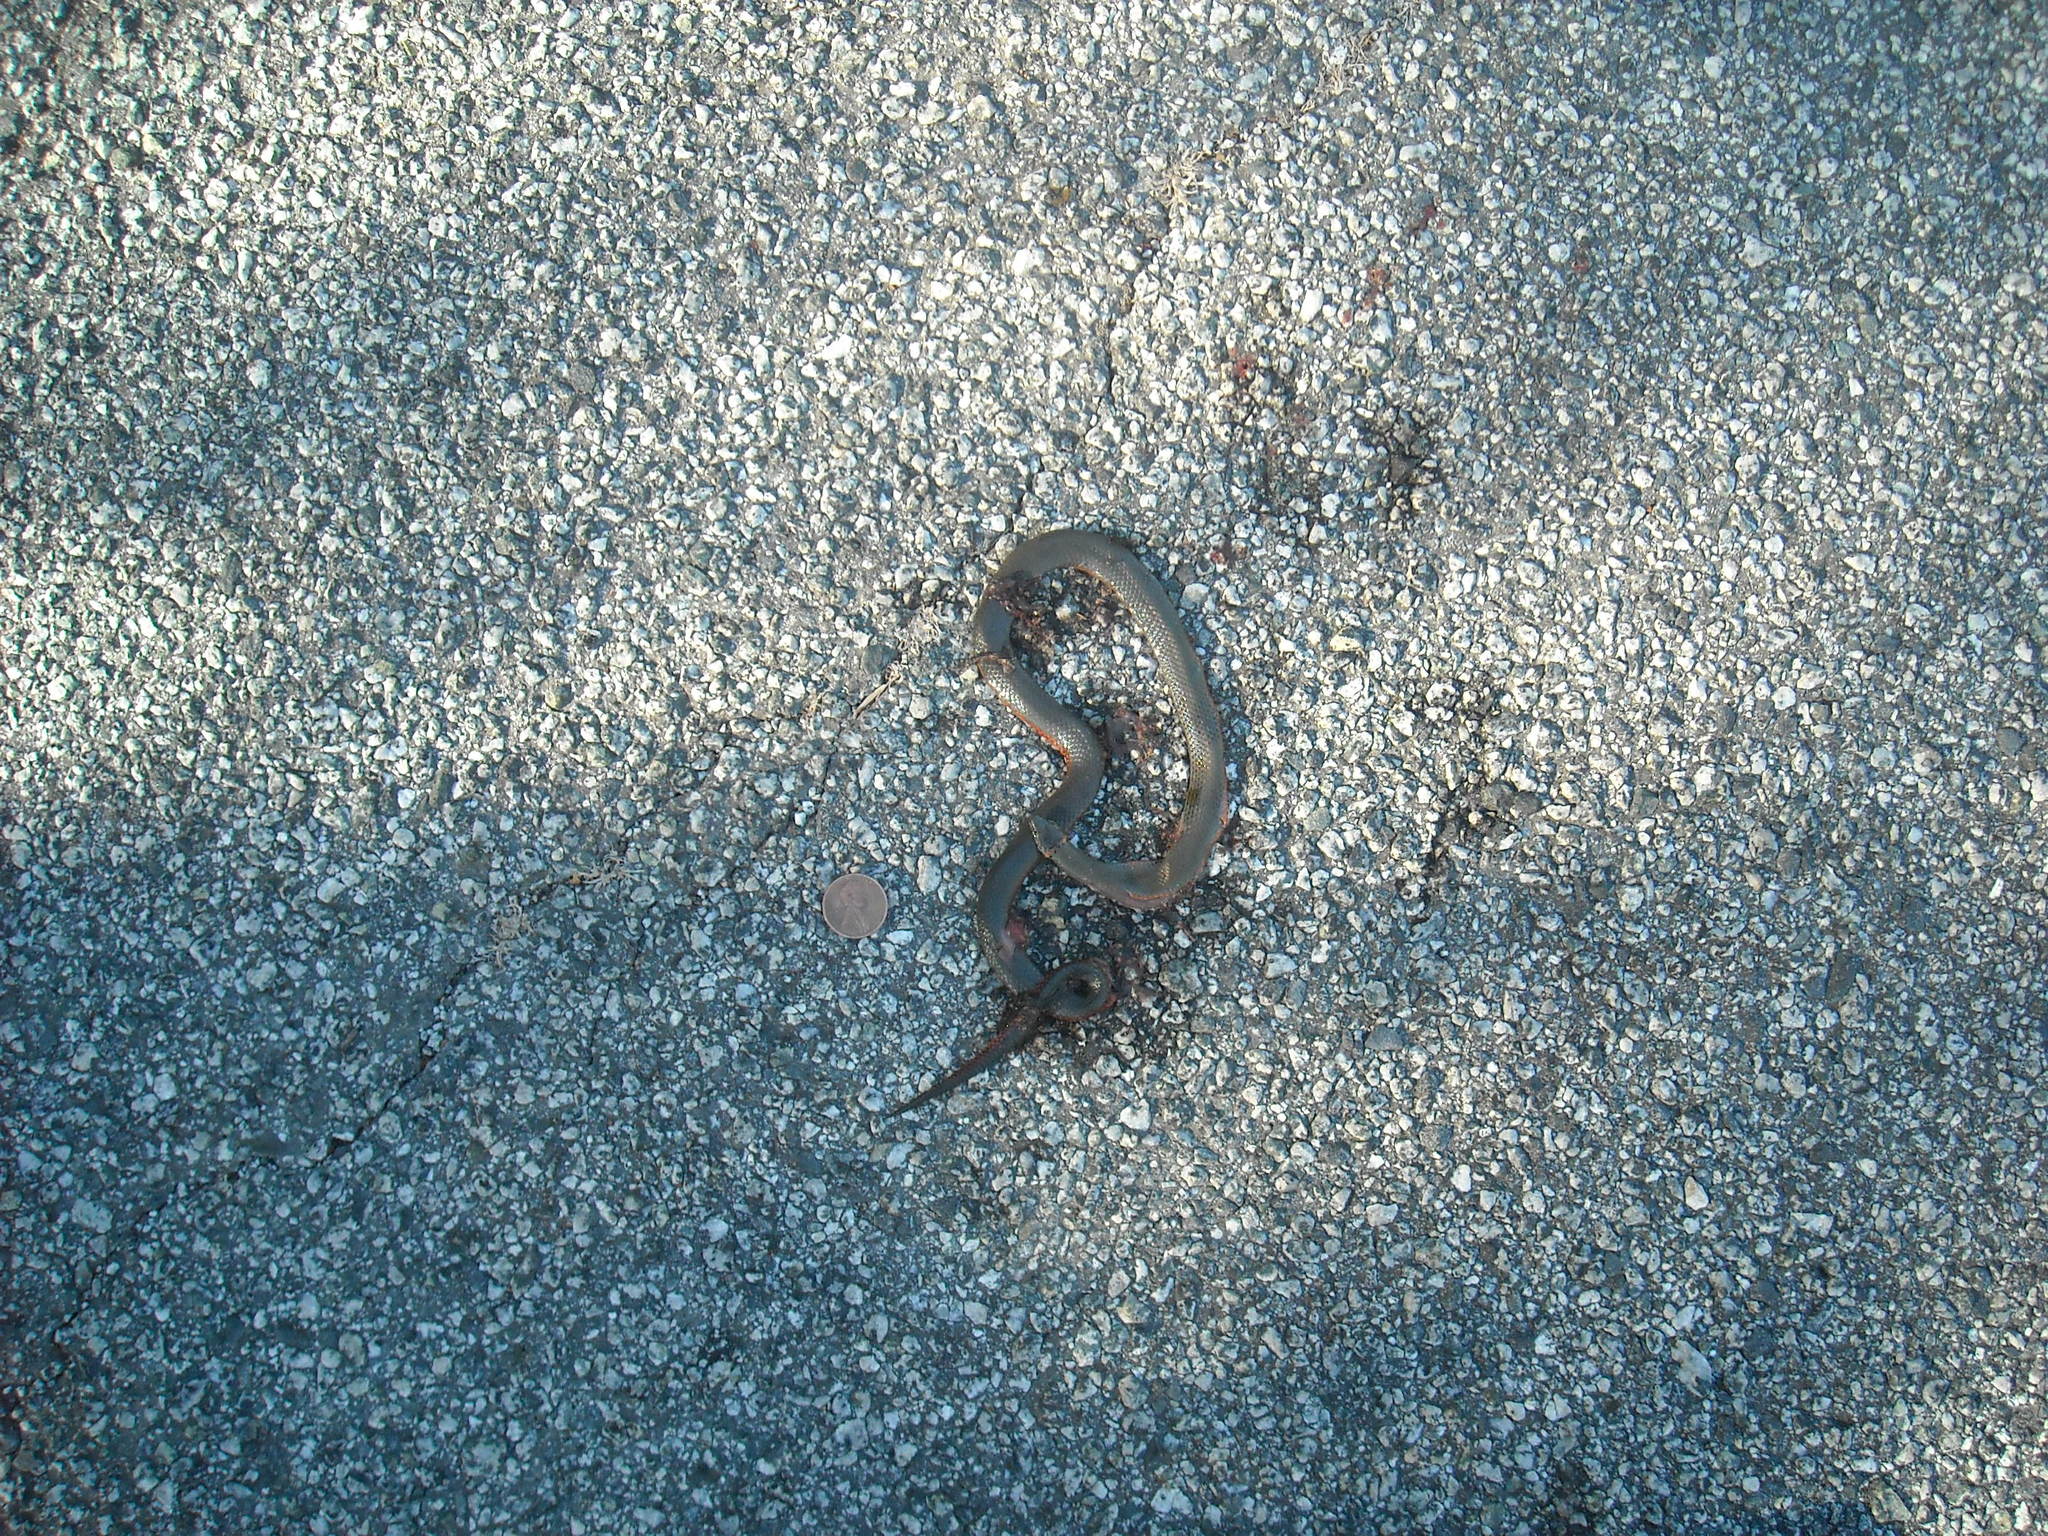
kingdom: Animalia
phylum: Chordata
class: Squamata
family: Colubridae
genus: Diadophis
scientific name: Diadophis punctatus
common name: Ringneck snake
